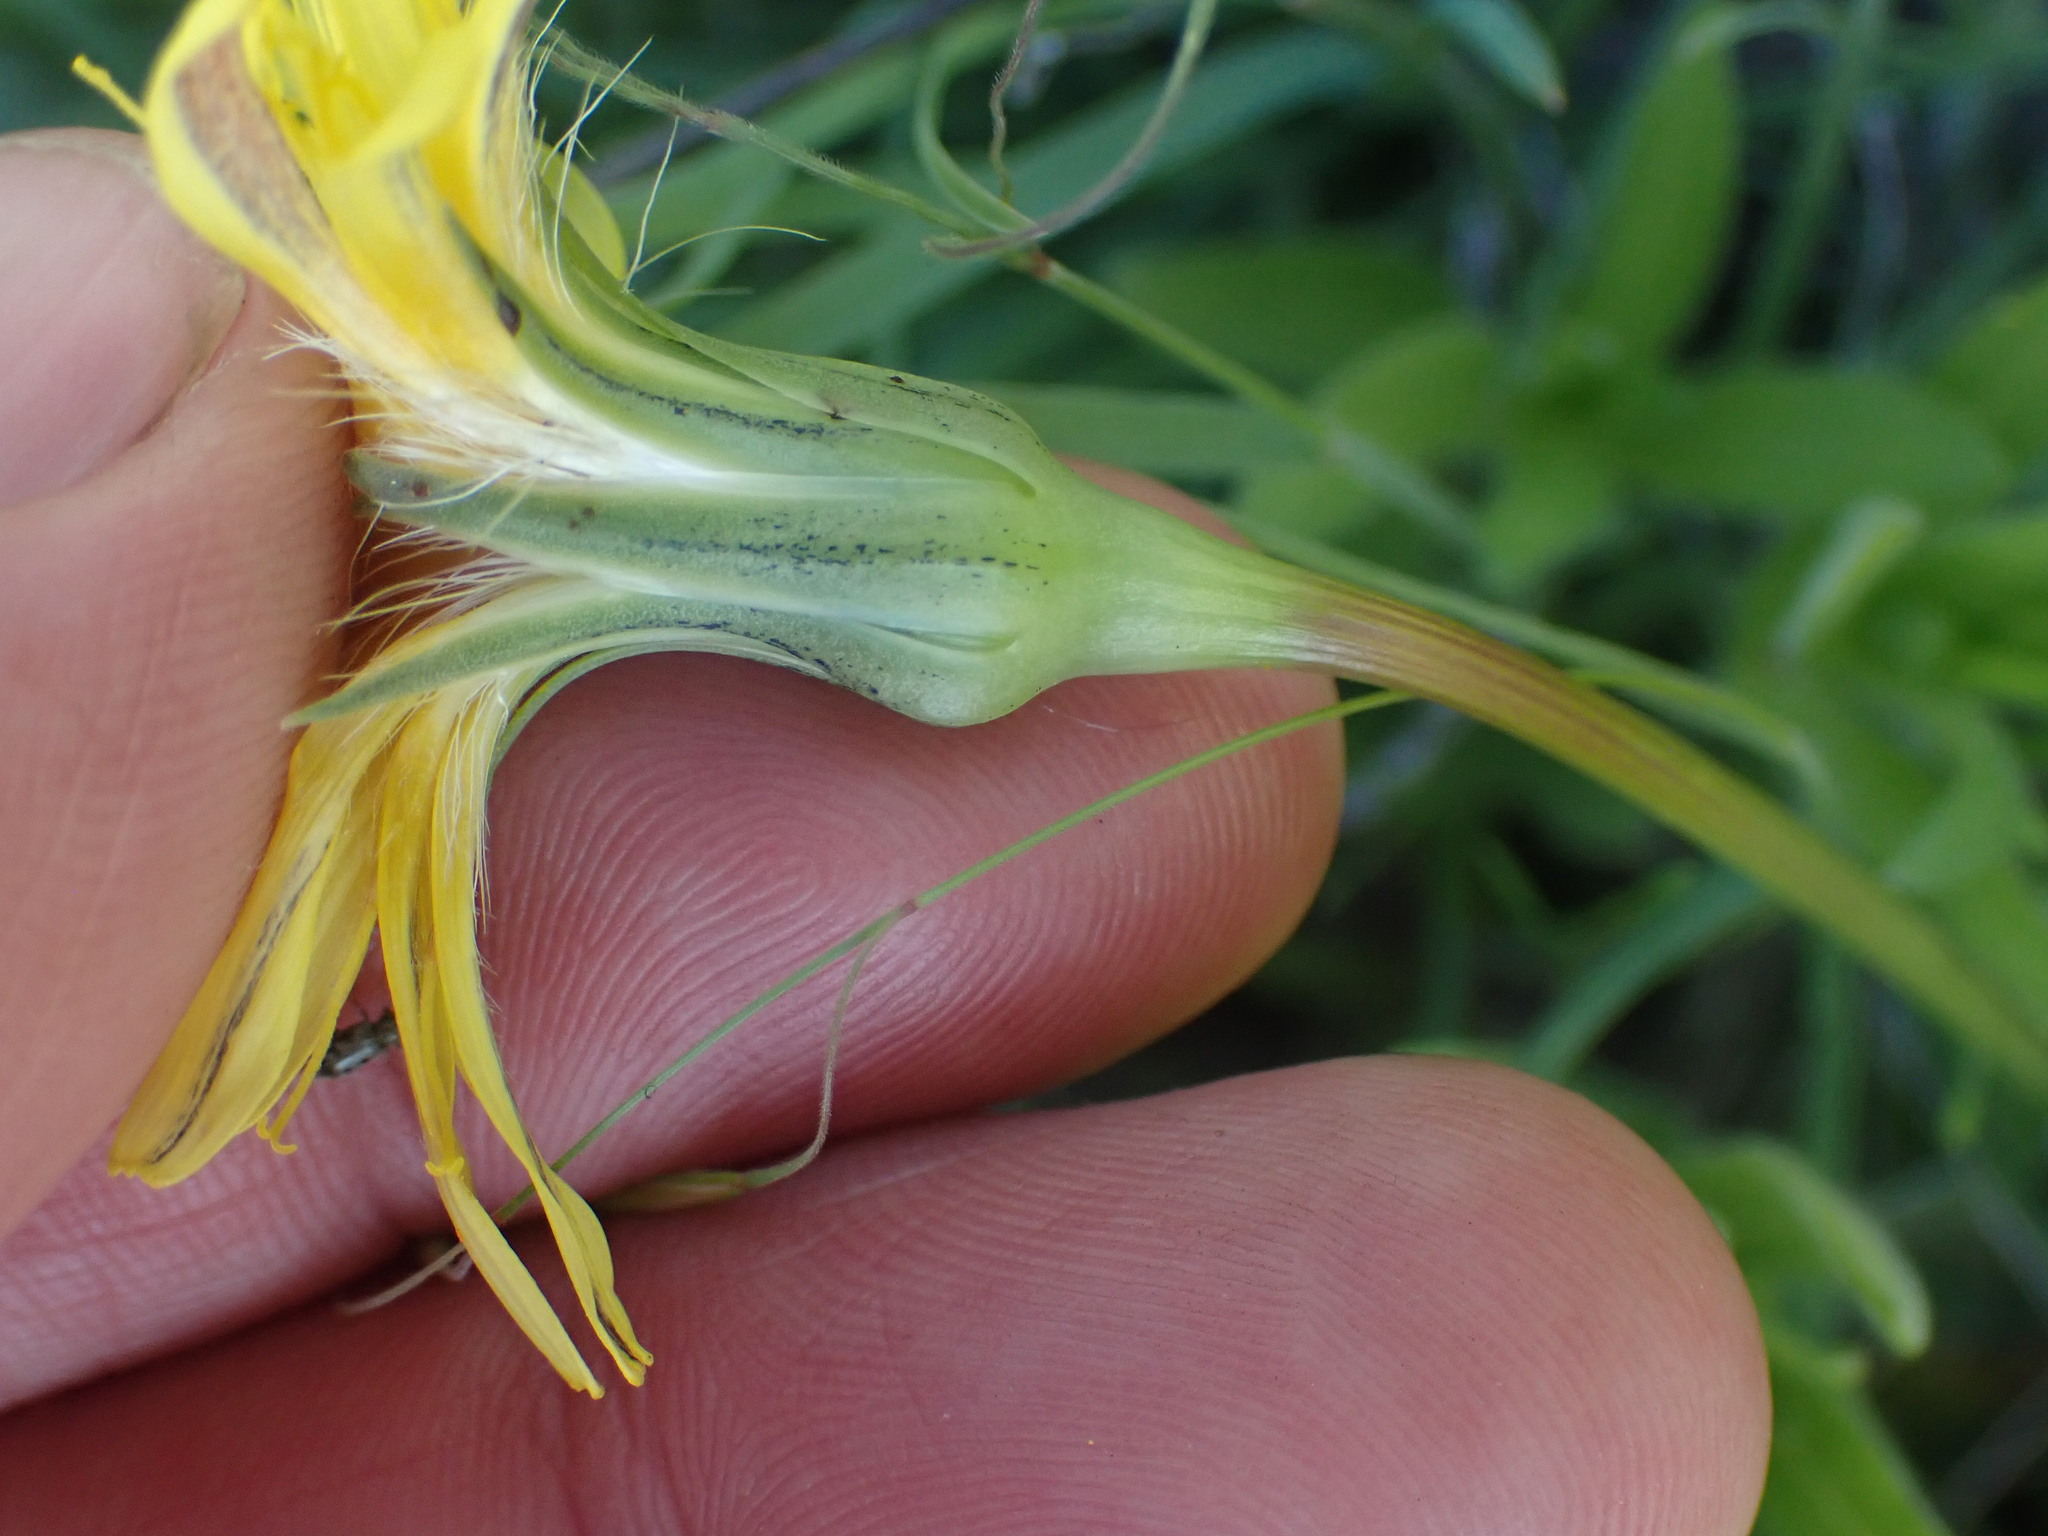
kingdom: Plantae
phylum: Tracheophyta
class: Magnoliopsida
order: Asterales
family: Asteraceae
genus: Microseris
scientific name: Microseris troximoides
